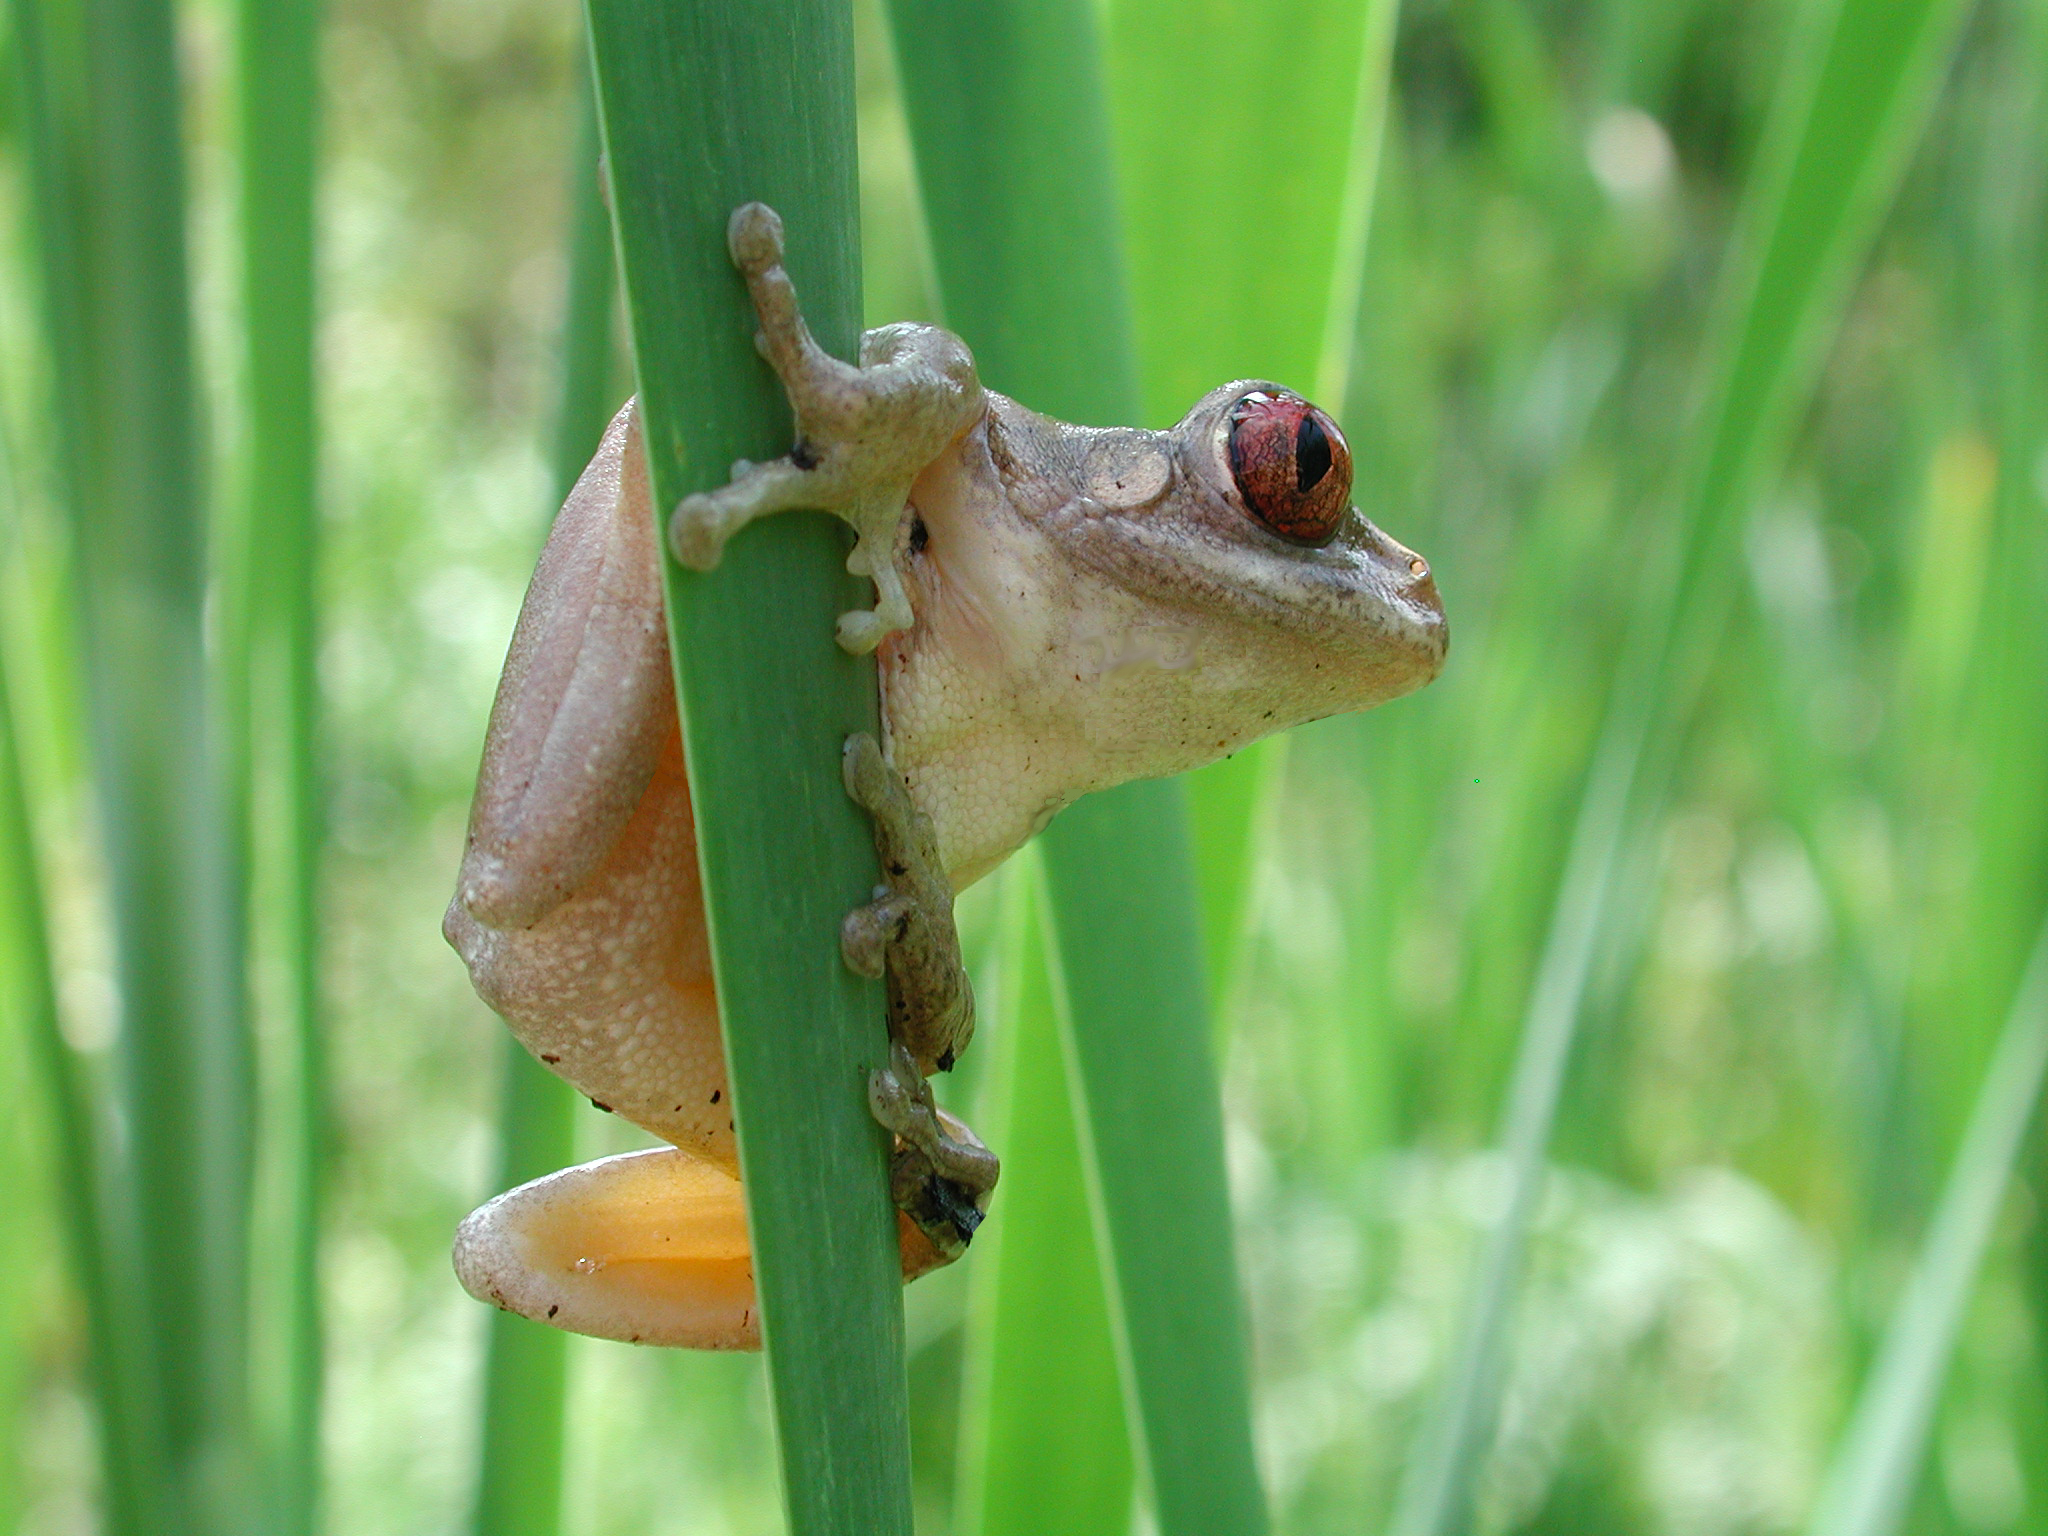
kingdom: Animalia
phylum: Chordata
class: Amphibia
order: Anura
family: Arthroleptidae
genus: Leptopelis
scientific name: Leptopelis natalensis
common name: Natal tree frog
